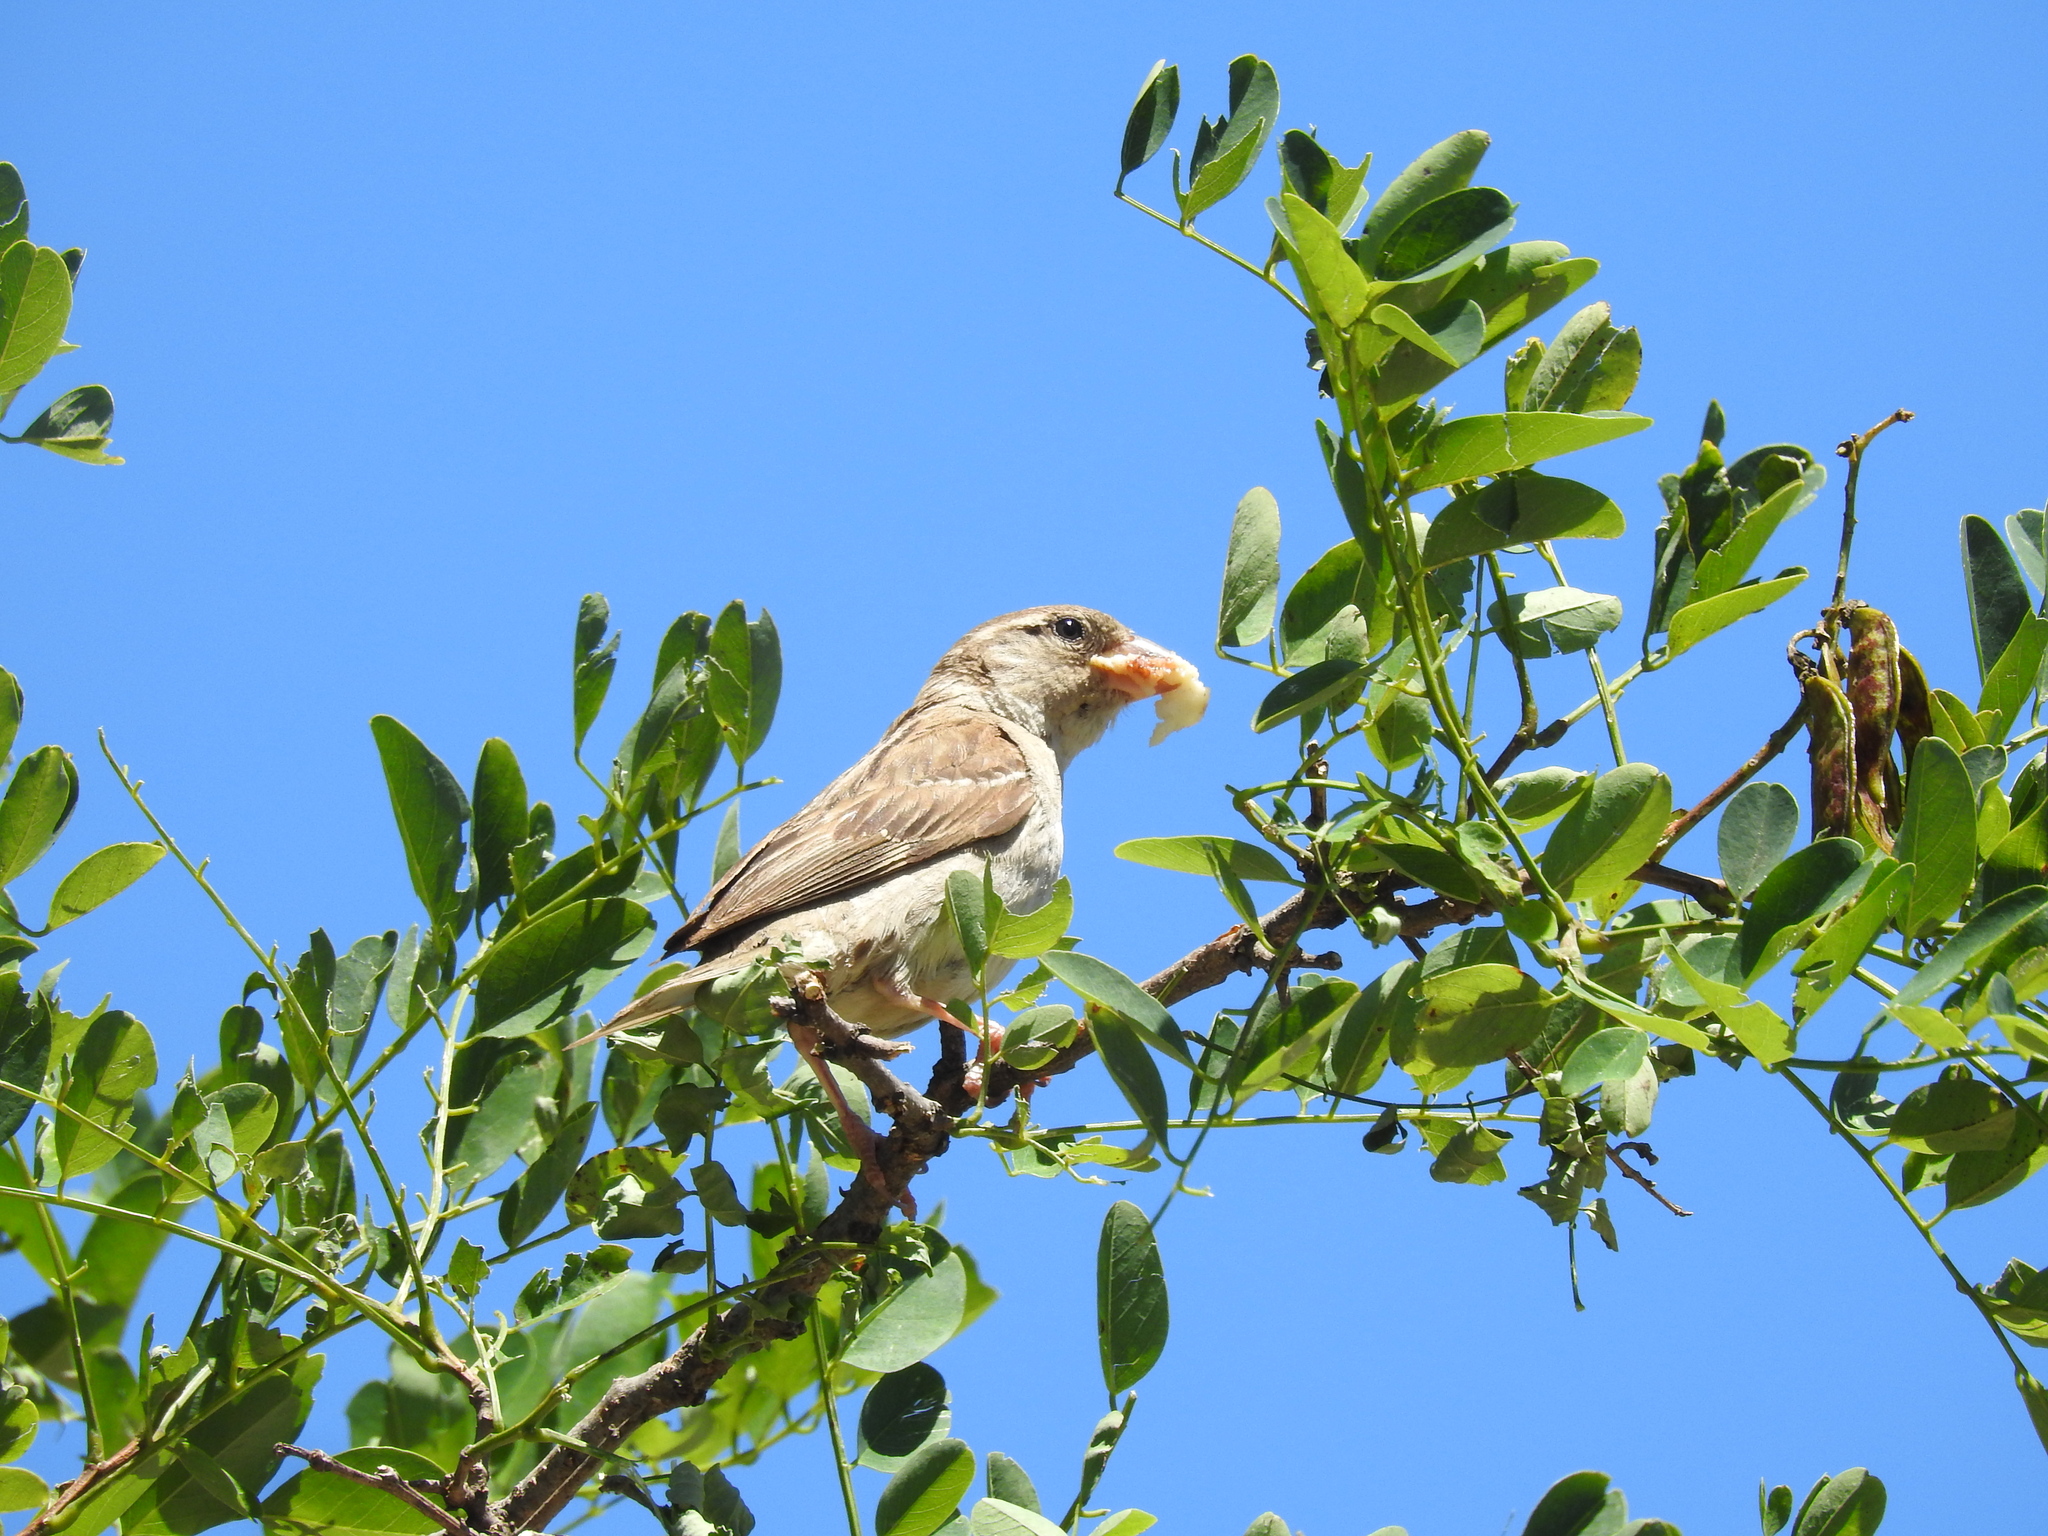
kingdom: Animalia
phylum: Chordata
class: Aves
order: Passeriformes
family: Passeridae
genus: Passer
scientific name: Passer domesticus
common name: House sparrow
